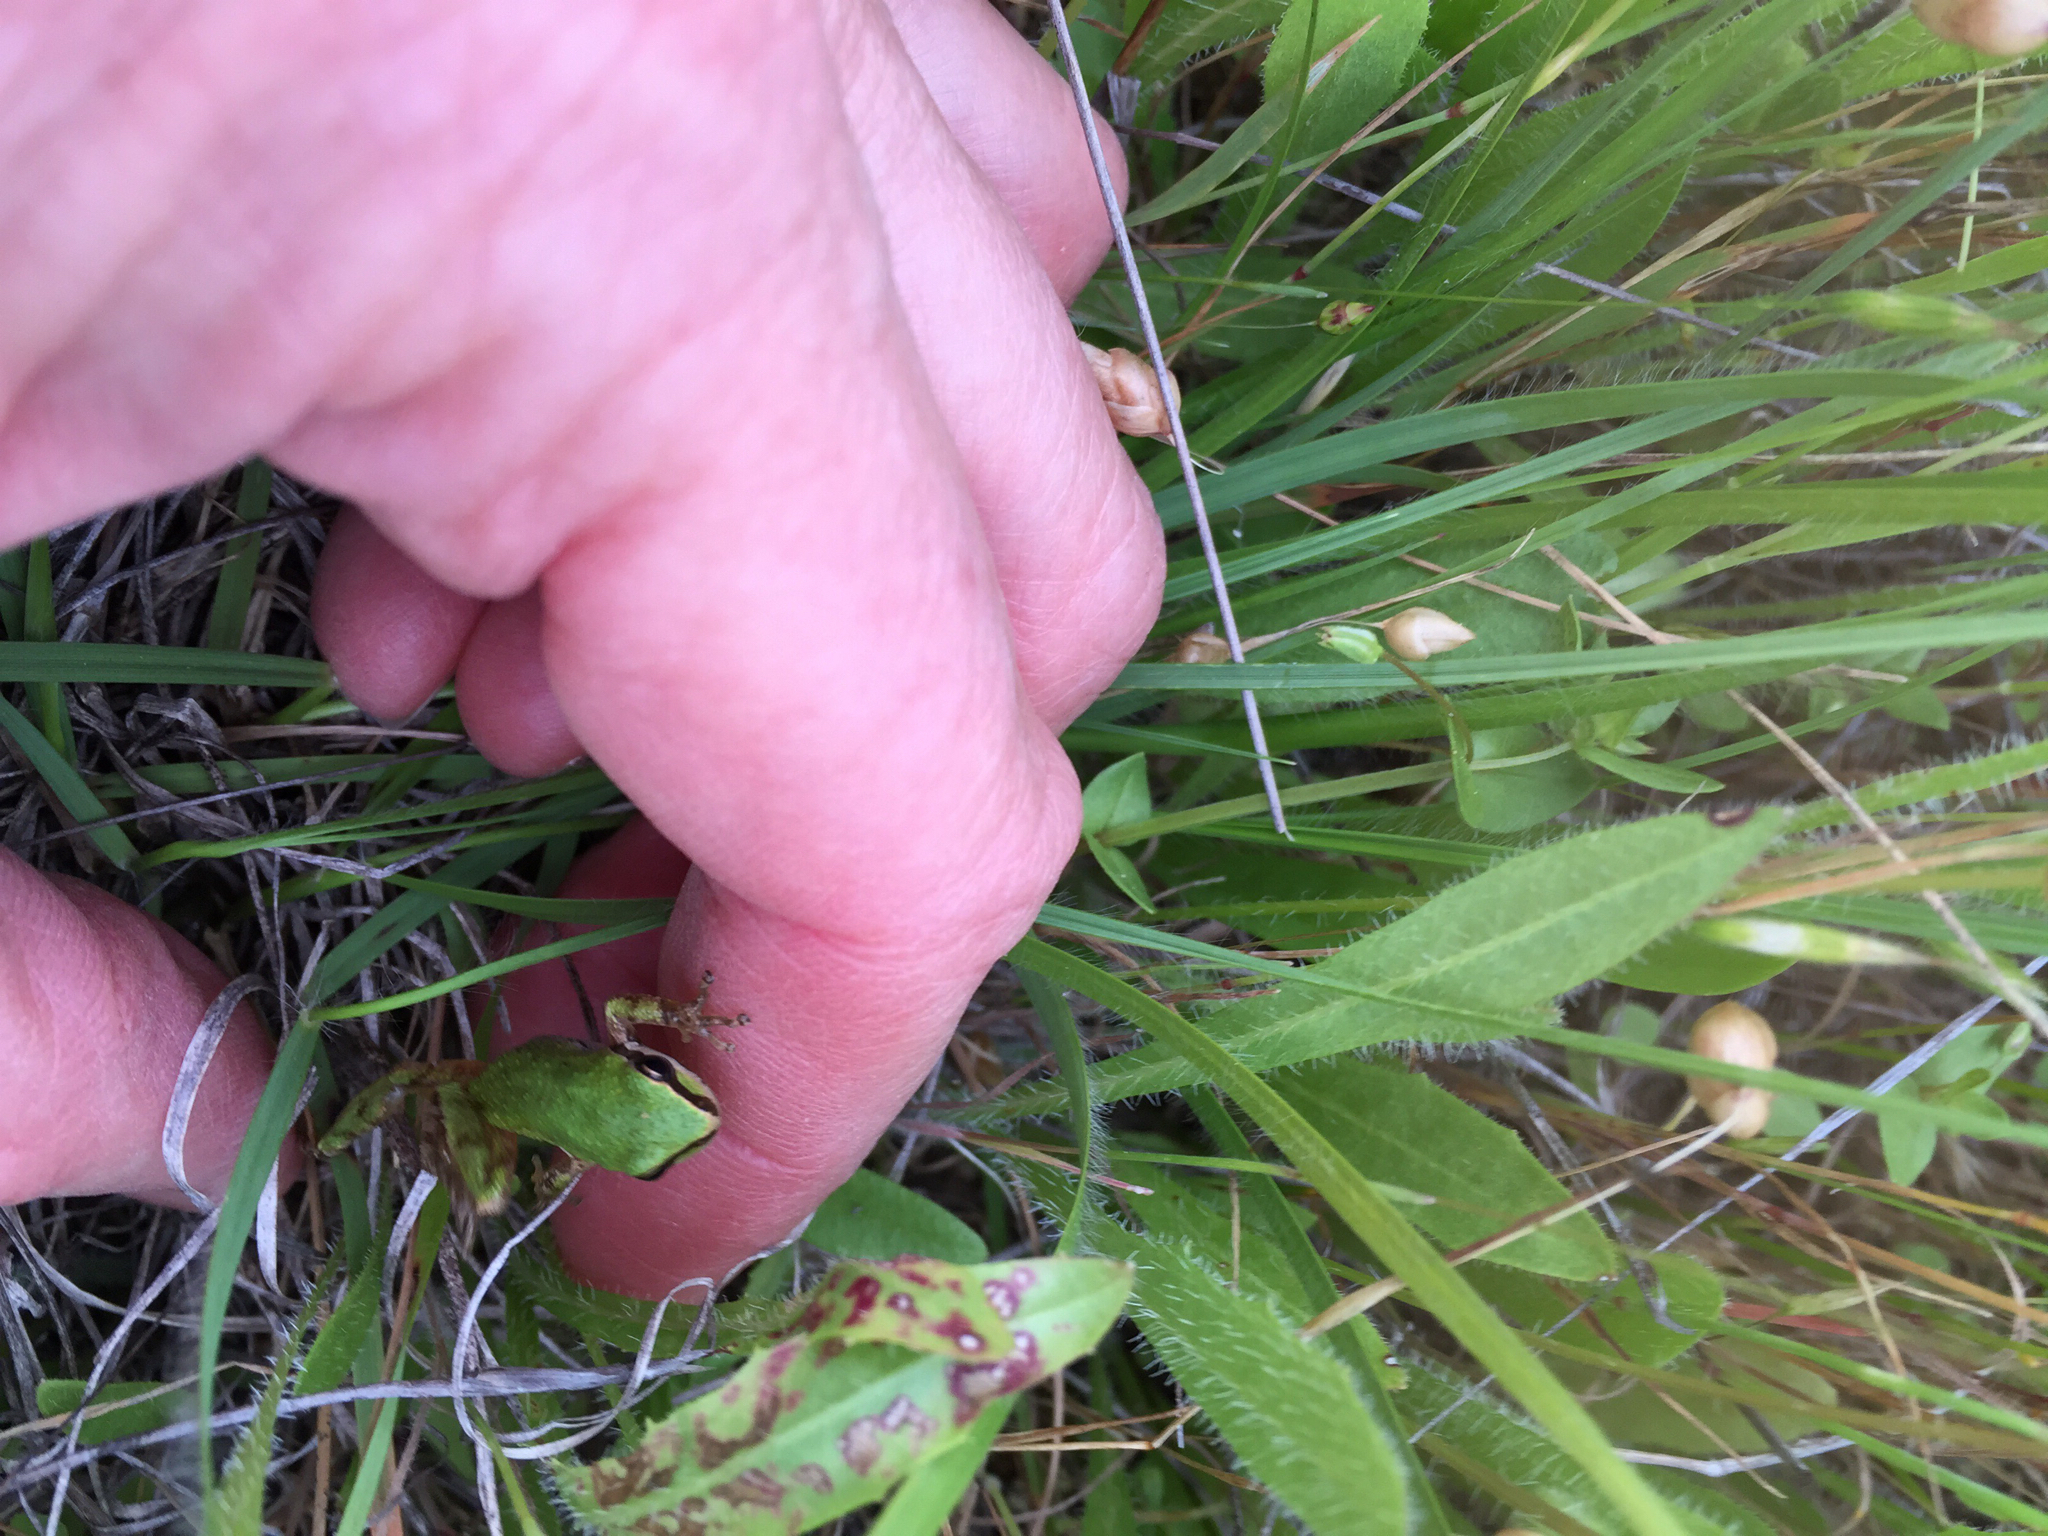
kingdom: Animalia
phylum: Chordata
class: Amphibia
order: Anura
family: Hylidae
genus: Pseudacris
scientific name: Pseudacris regilla
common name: Pacific chorus frog
